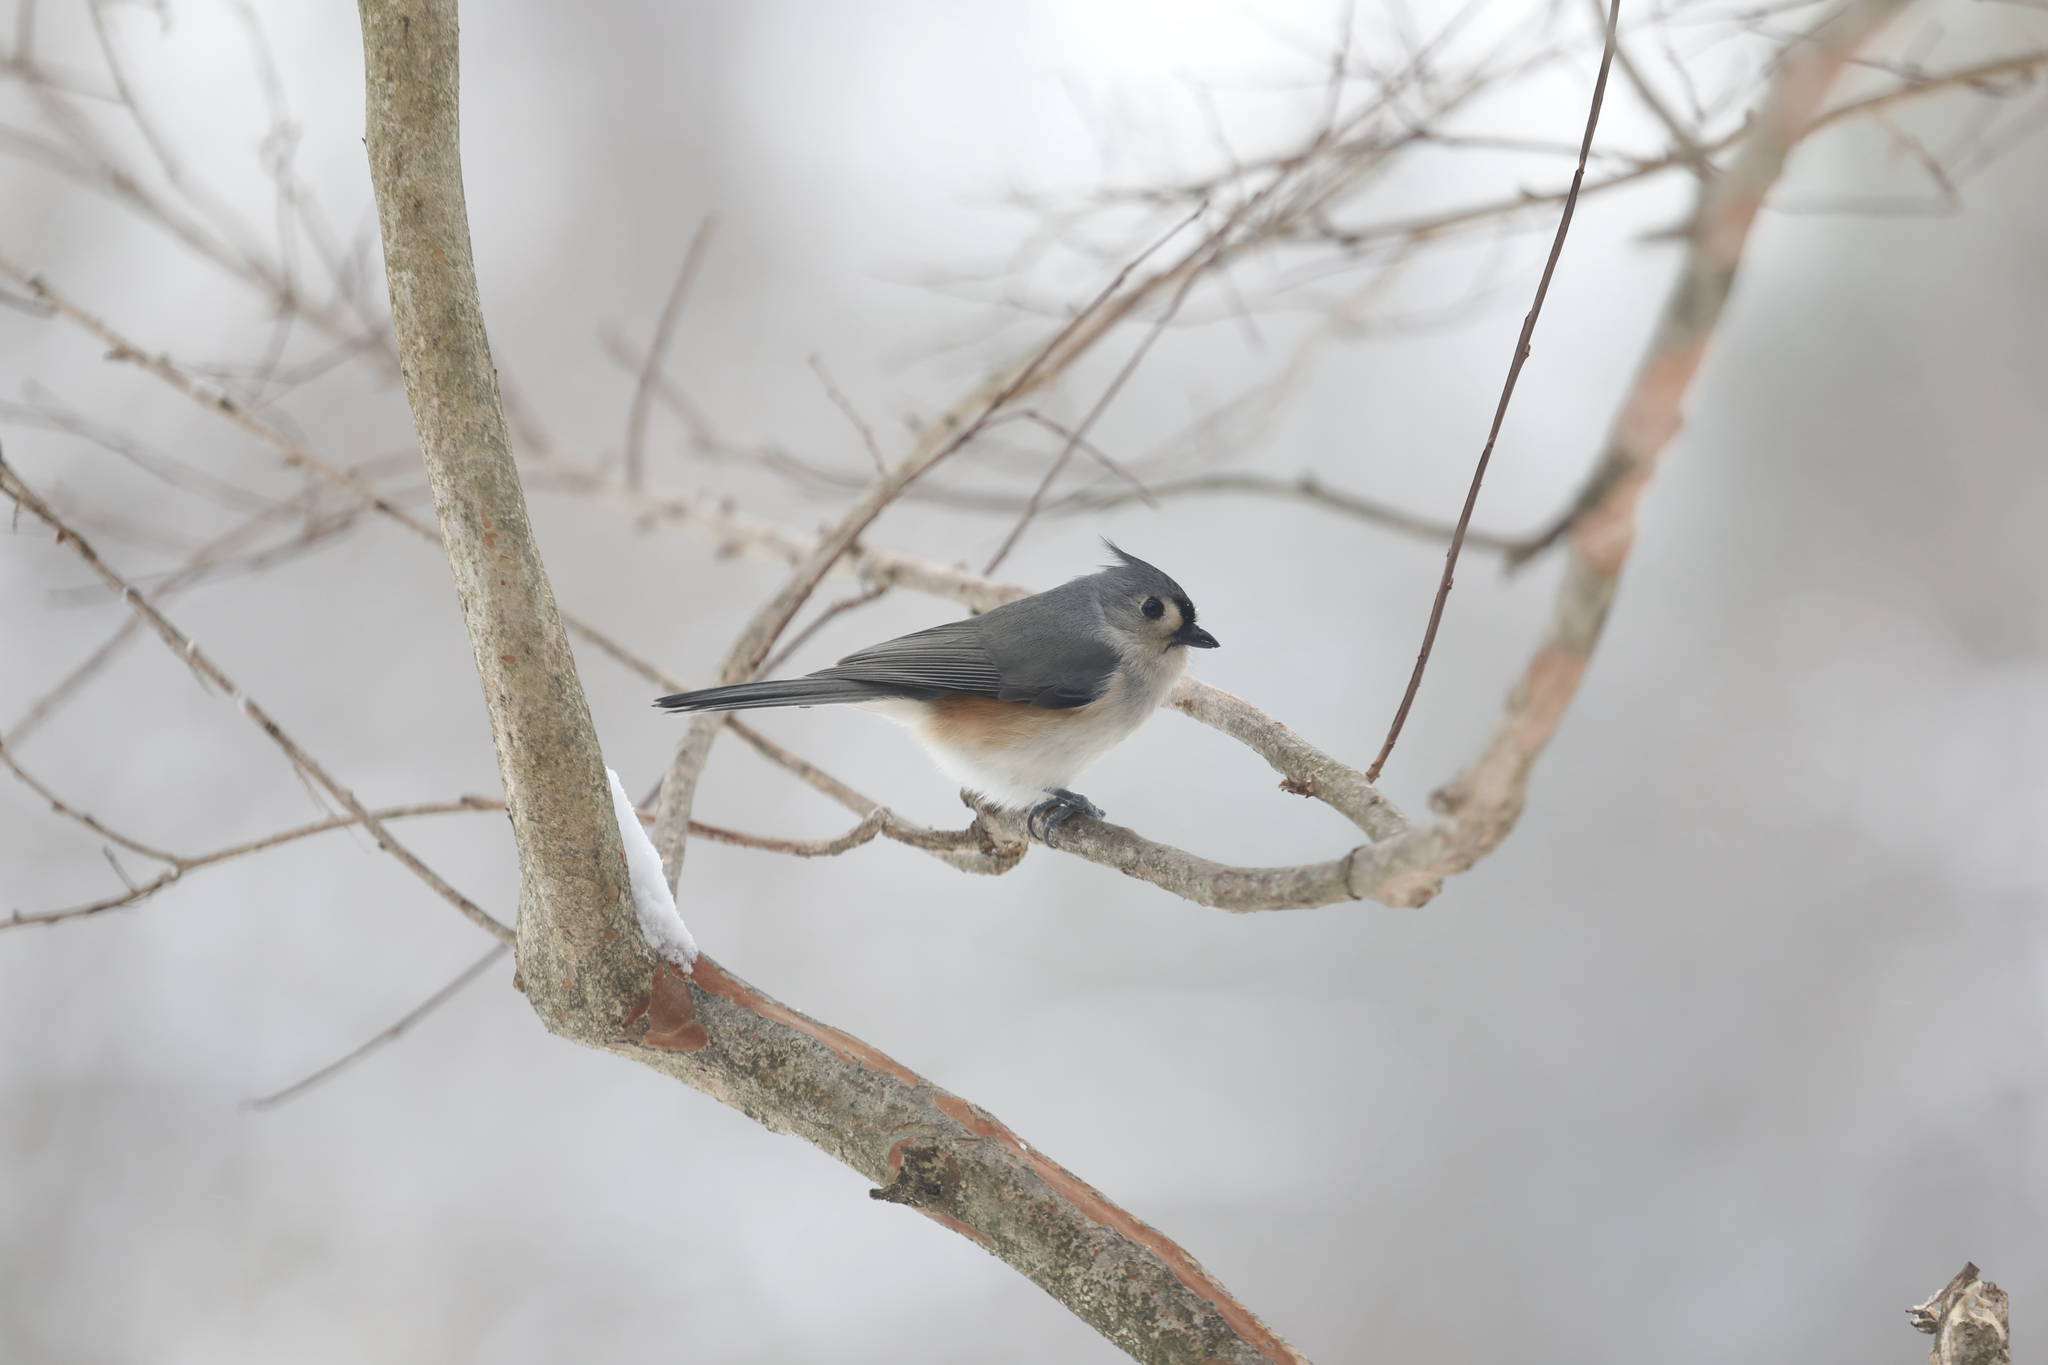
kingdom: Animalia
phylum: Chordata
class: Aves
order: Passeriformes
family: Paridae
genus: Baeolophus
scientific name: Baeolophus bicolor
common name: Tufted titmouse
